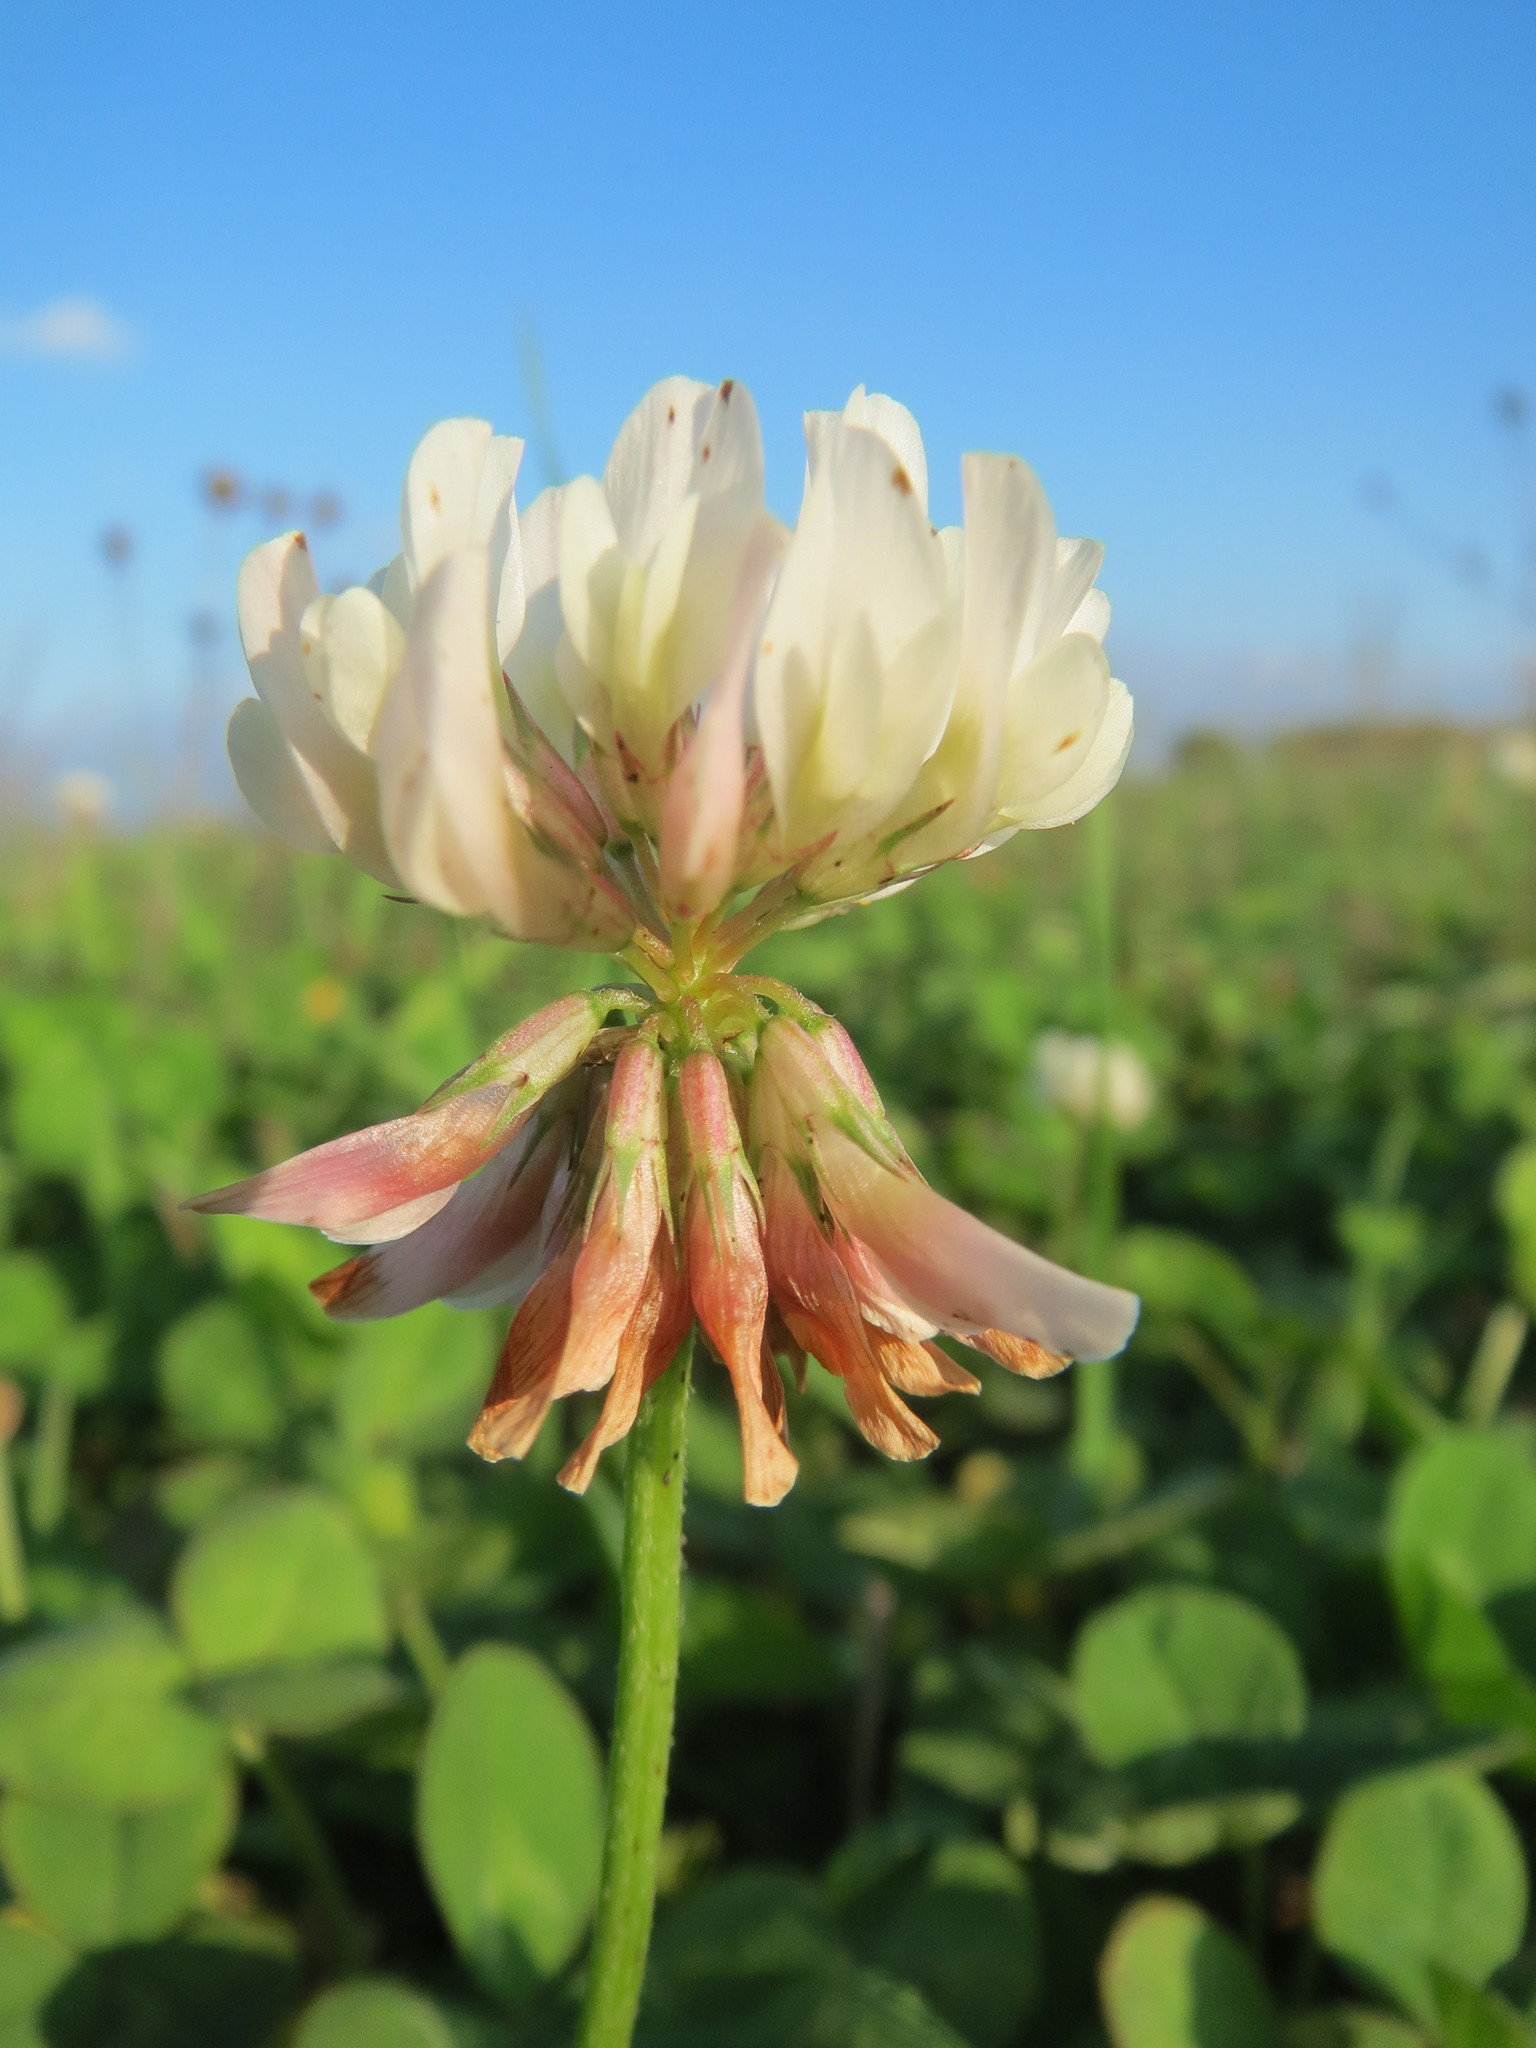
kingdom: Plantae
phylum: Tracheophyta
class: Magnoliopsida
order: Fabales
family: Fabaceae
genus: Trifolium
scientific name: Trifolium repens
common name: White clover
